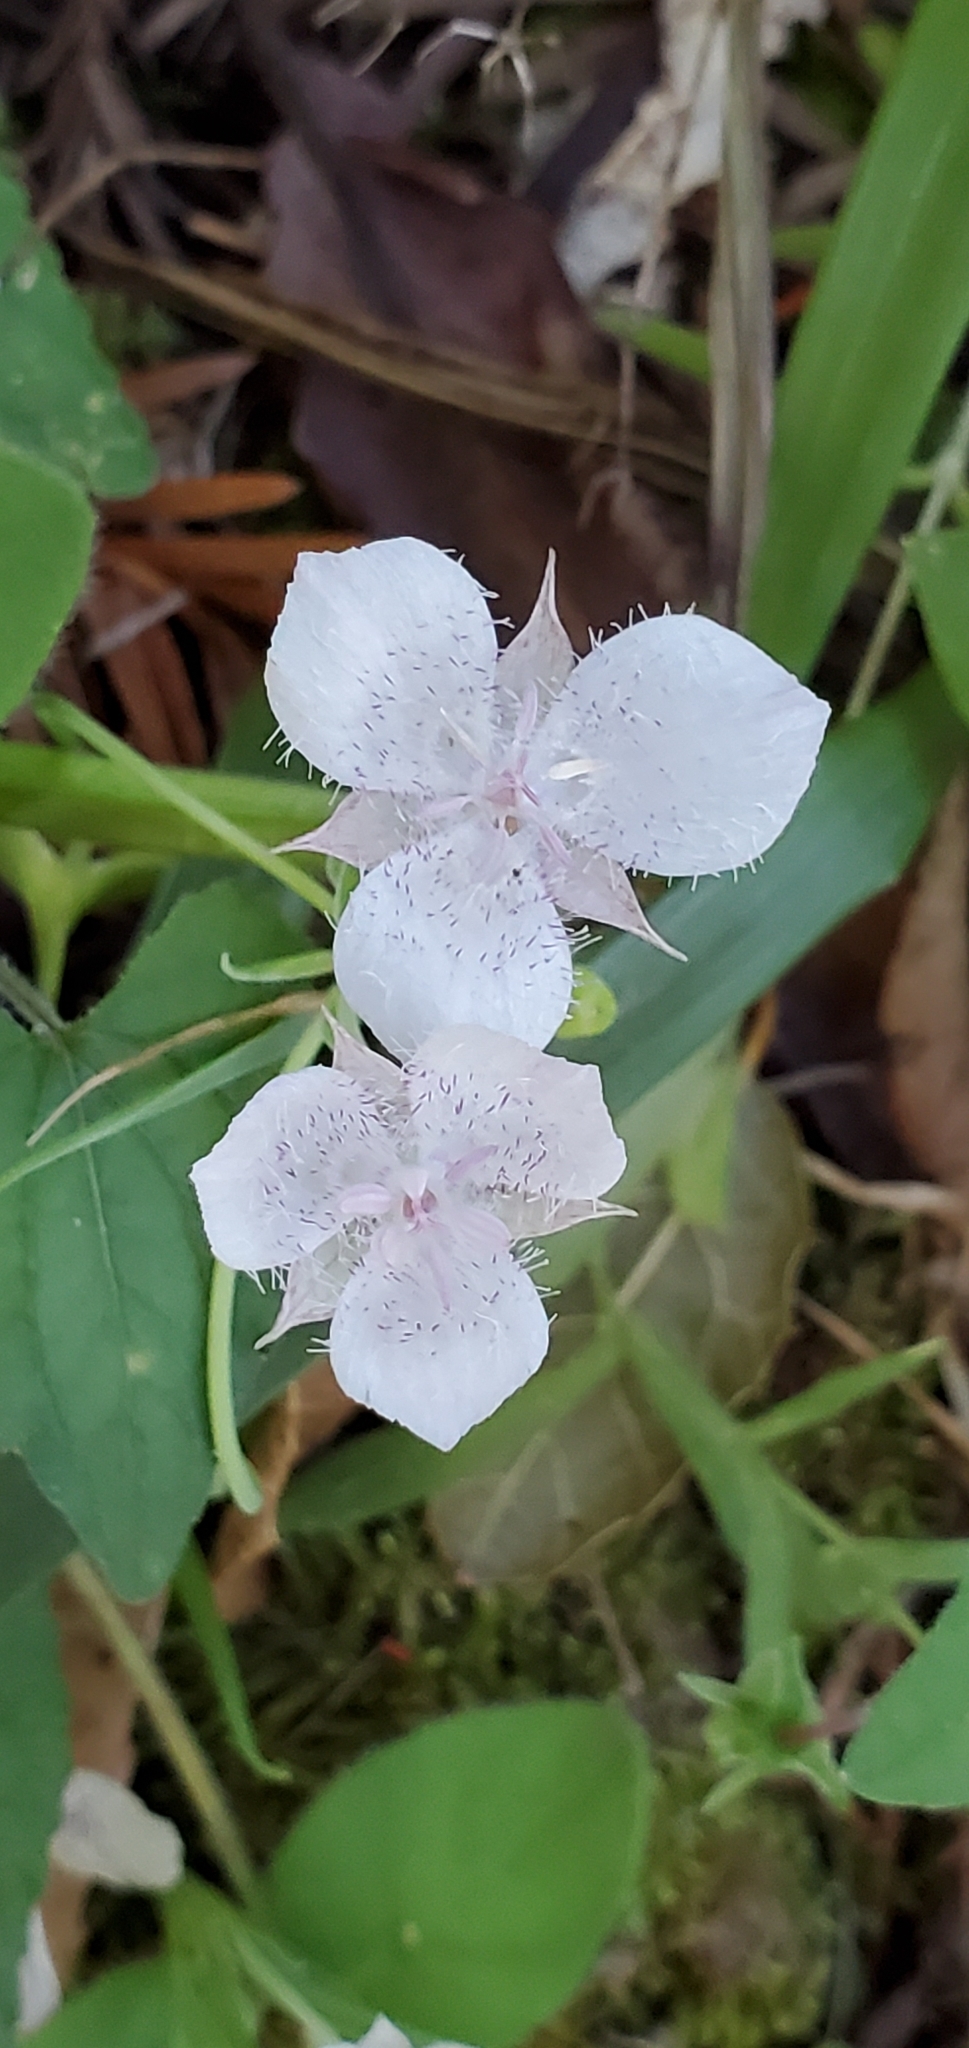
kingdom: Plantae
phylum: Tracheophyta
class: Liliopsida
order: Liliales
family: Liliaceae
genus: Calochortus
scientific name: Calochortus tolmiei
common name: Pussy-ears
